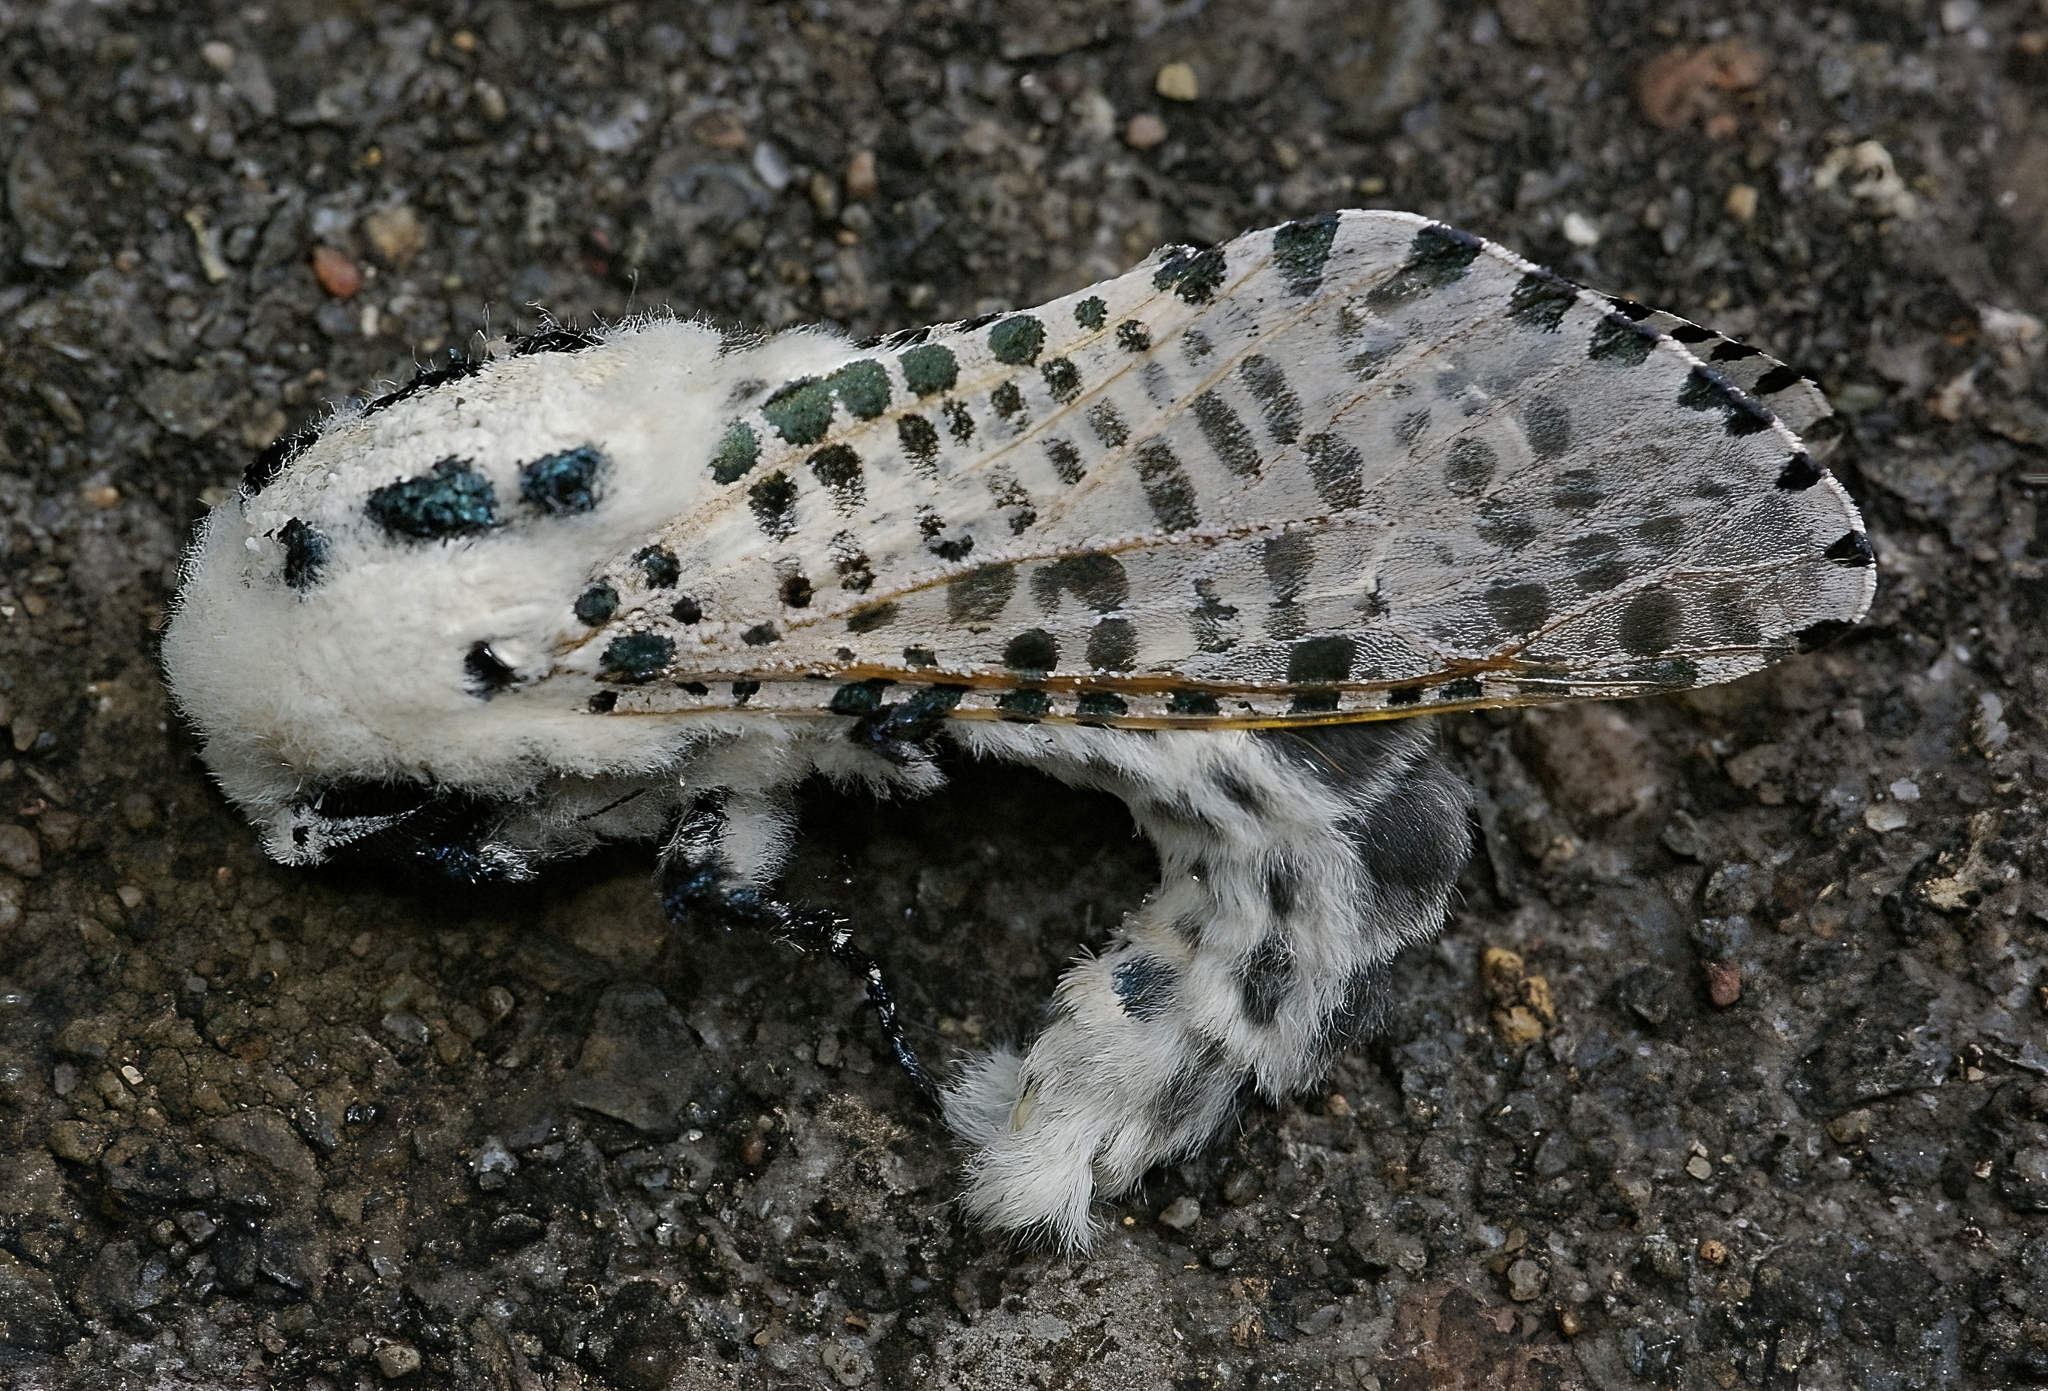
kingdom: Animalia
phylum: Arthropoda
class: Insecta
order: Lepidoptera
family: Cossidae
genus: Zeuzera
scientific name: Zeuzera pyrina
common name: Leopard moth
